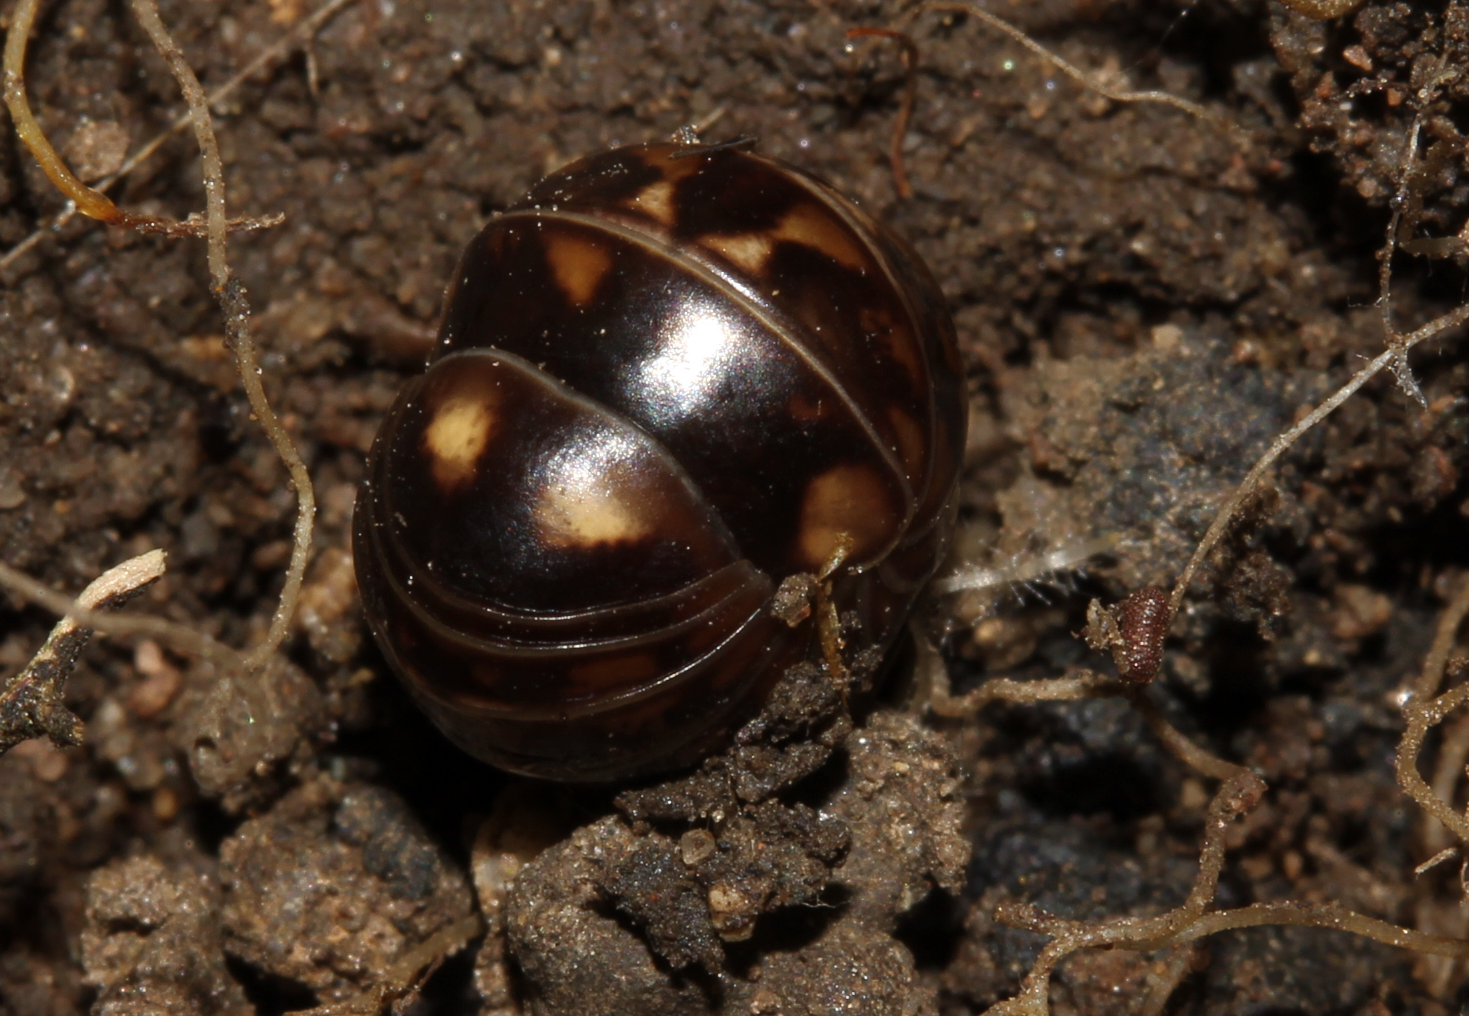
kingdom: Animalia
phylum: Arthropoda
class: Diplopoda
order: Glomerida
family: Glomeridae
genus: Glomeris
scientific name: Glomeris hexasticha
